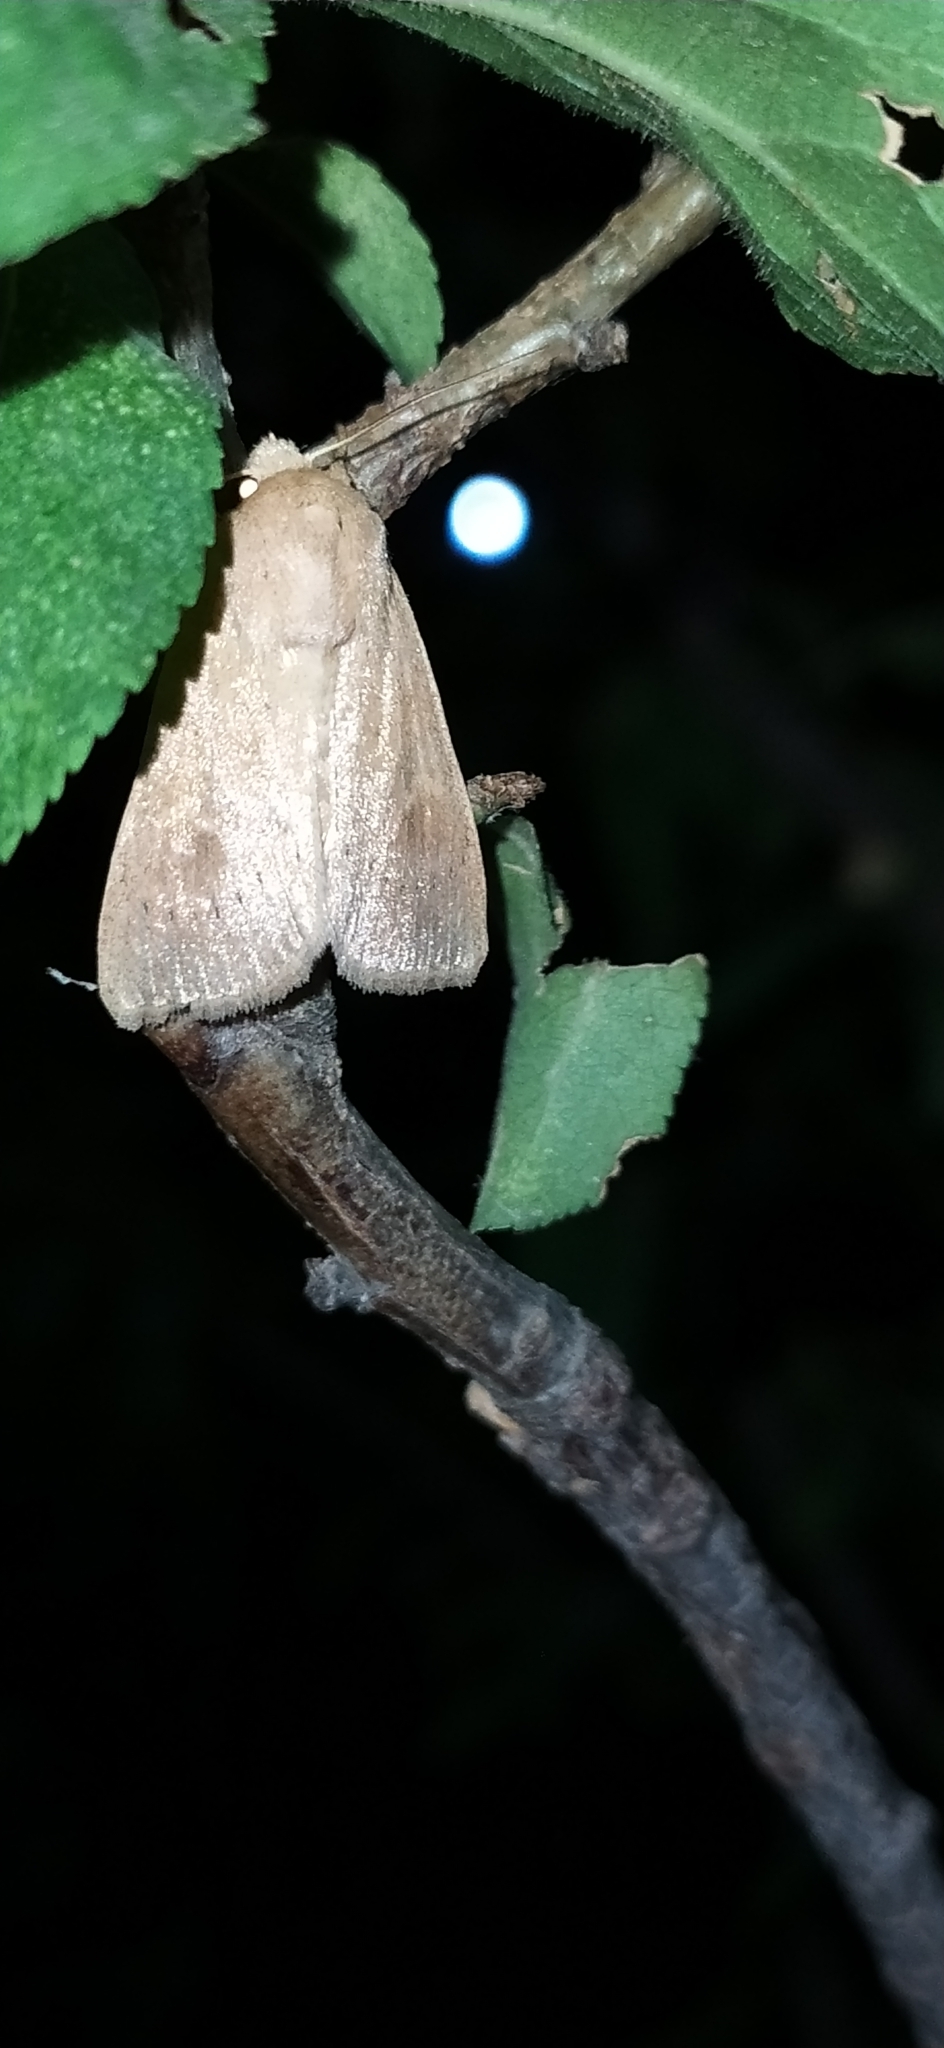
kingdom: Animalia
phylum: Arthropoda
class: Insecta
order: Lepidoptera
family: Noctuidae
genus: Mythimna
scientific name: Mythimna ferrago
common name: Clay
